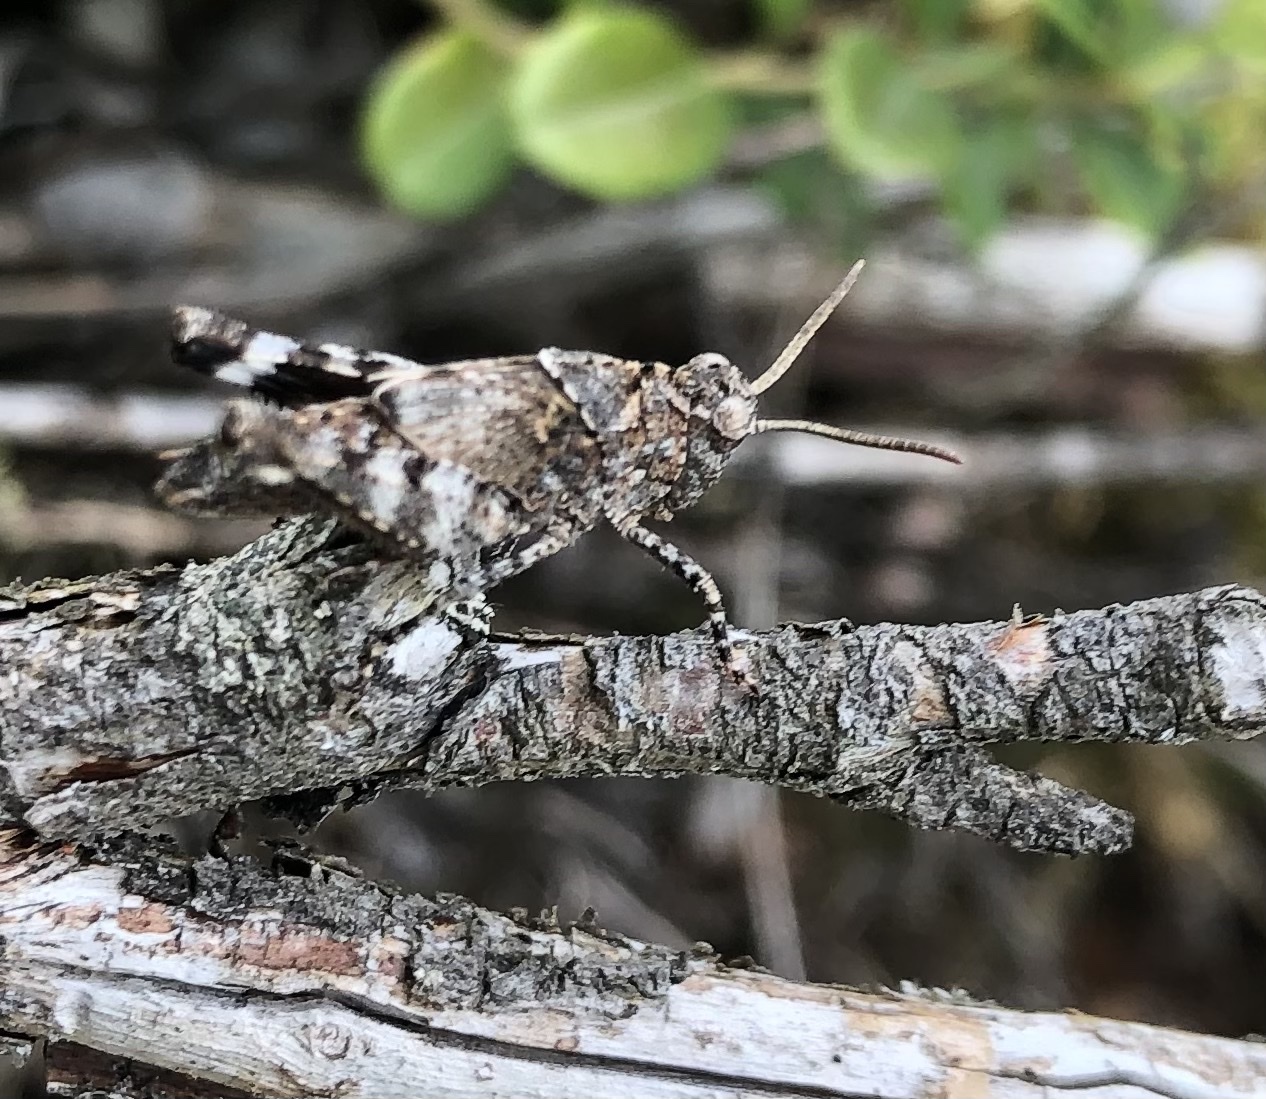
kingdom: Animalia
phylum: Arthropoda
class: Insecta
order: Orthoptera
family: Acrididae
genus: Oedipoda
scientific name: Oedipoda caerulescens
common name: Blue-winged grasshopper
